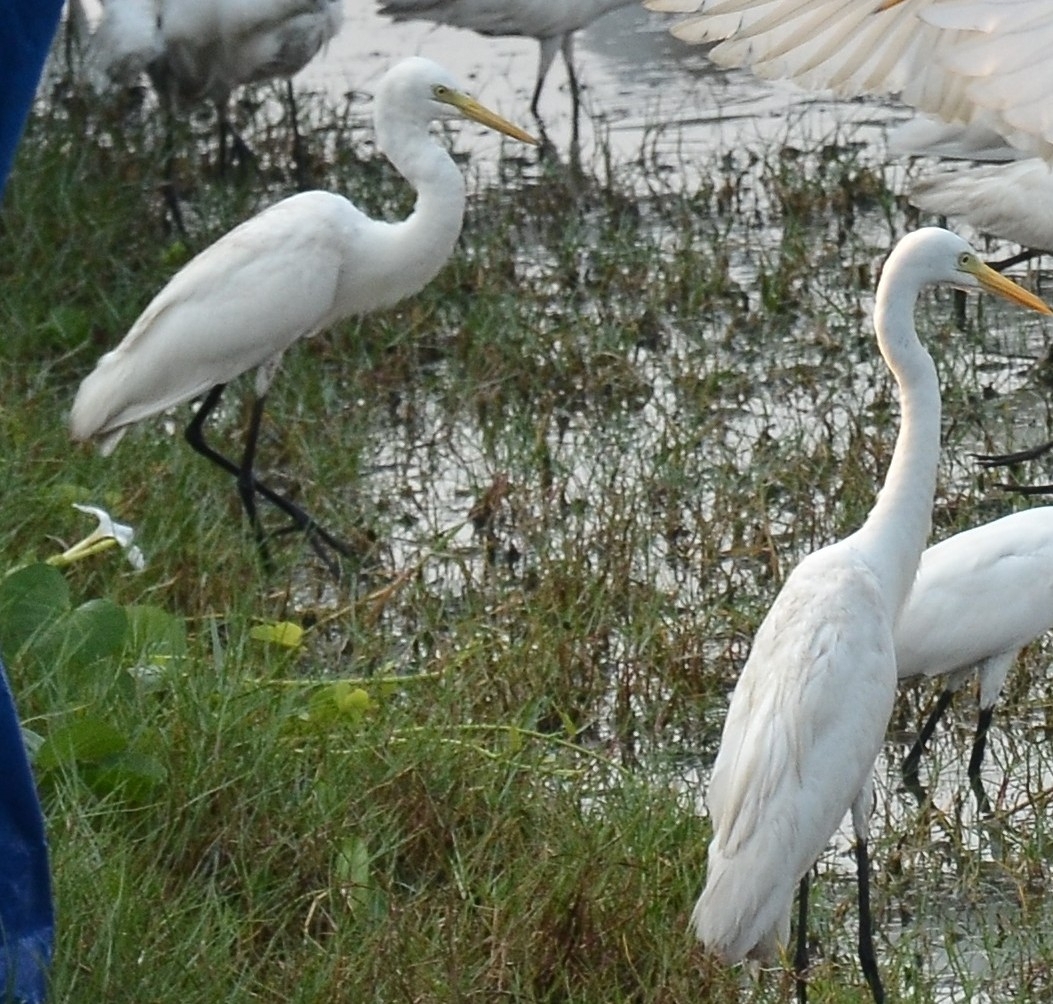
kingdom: Animalia
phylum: Chordata
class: Aves
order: Pelecaniformes
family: Ardeidae
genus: Egretta
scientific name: Egretta intermedia
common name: Intermediate egret
